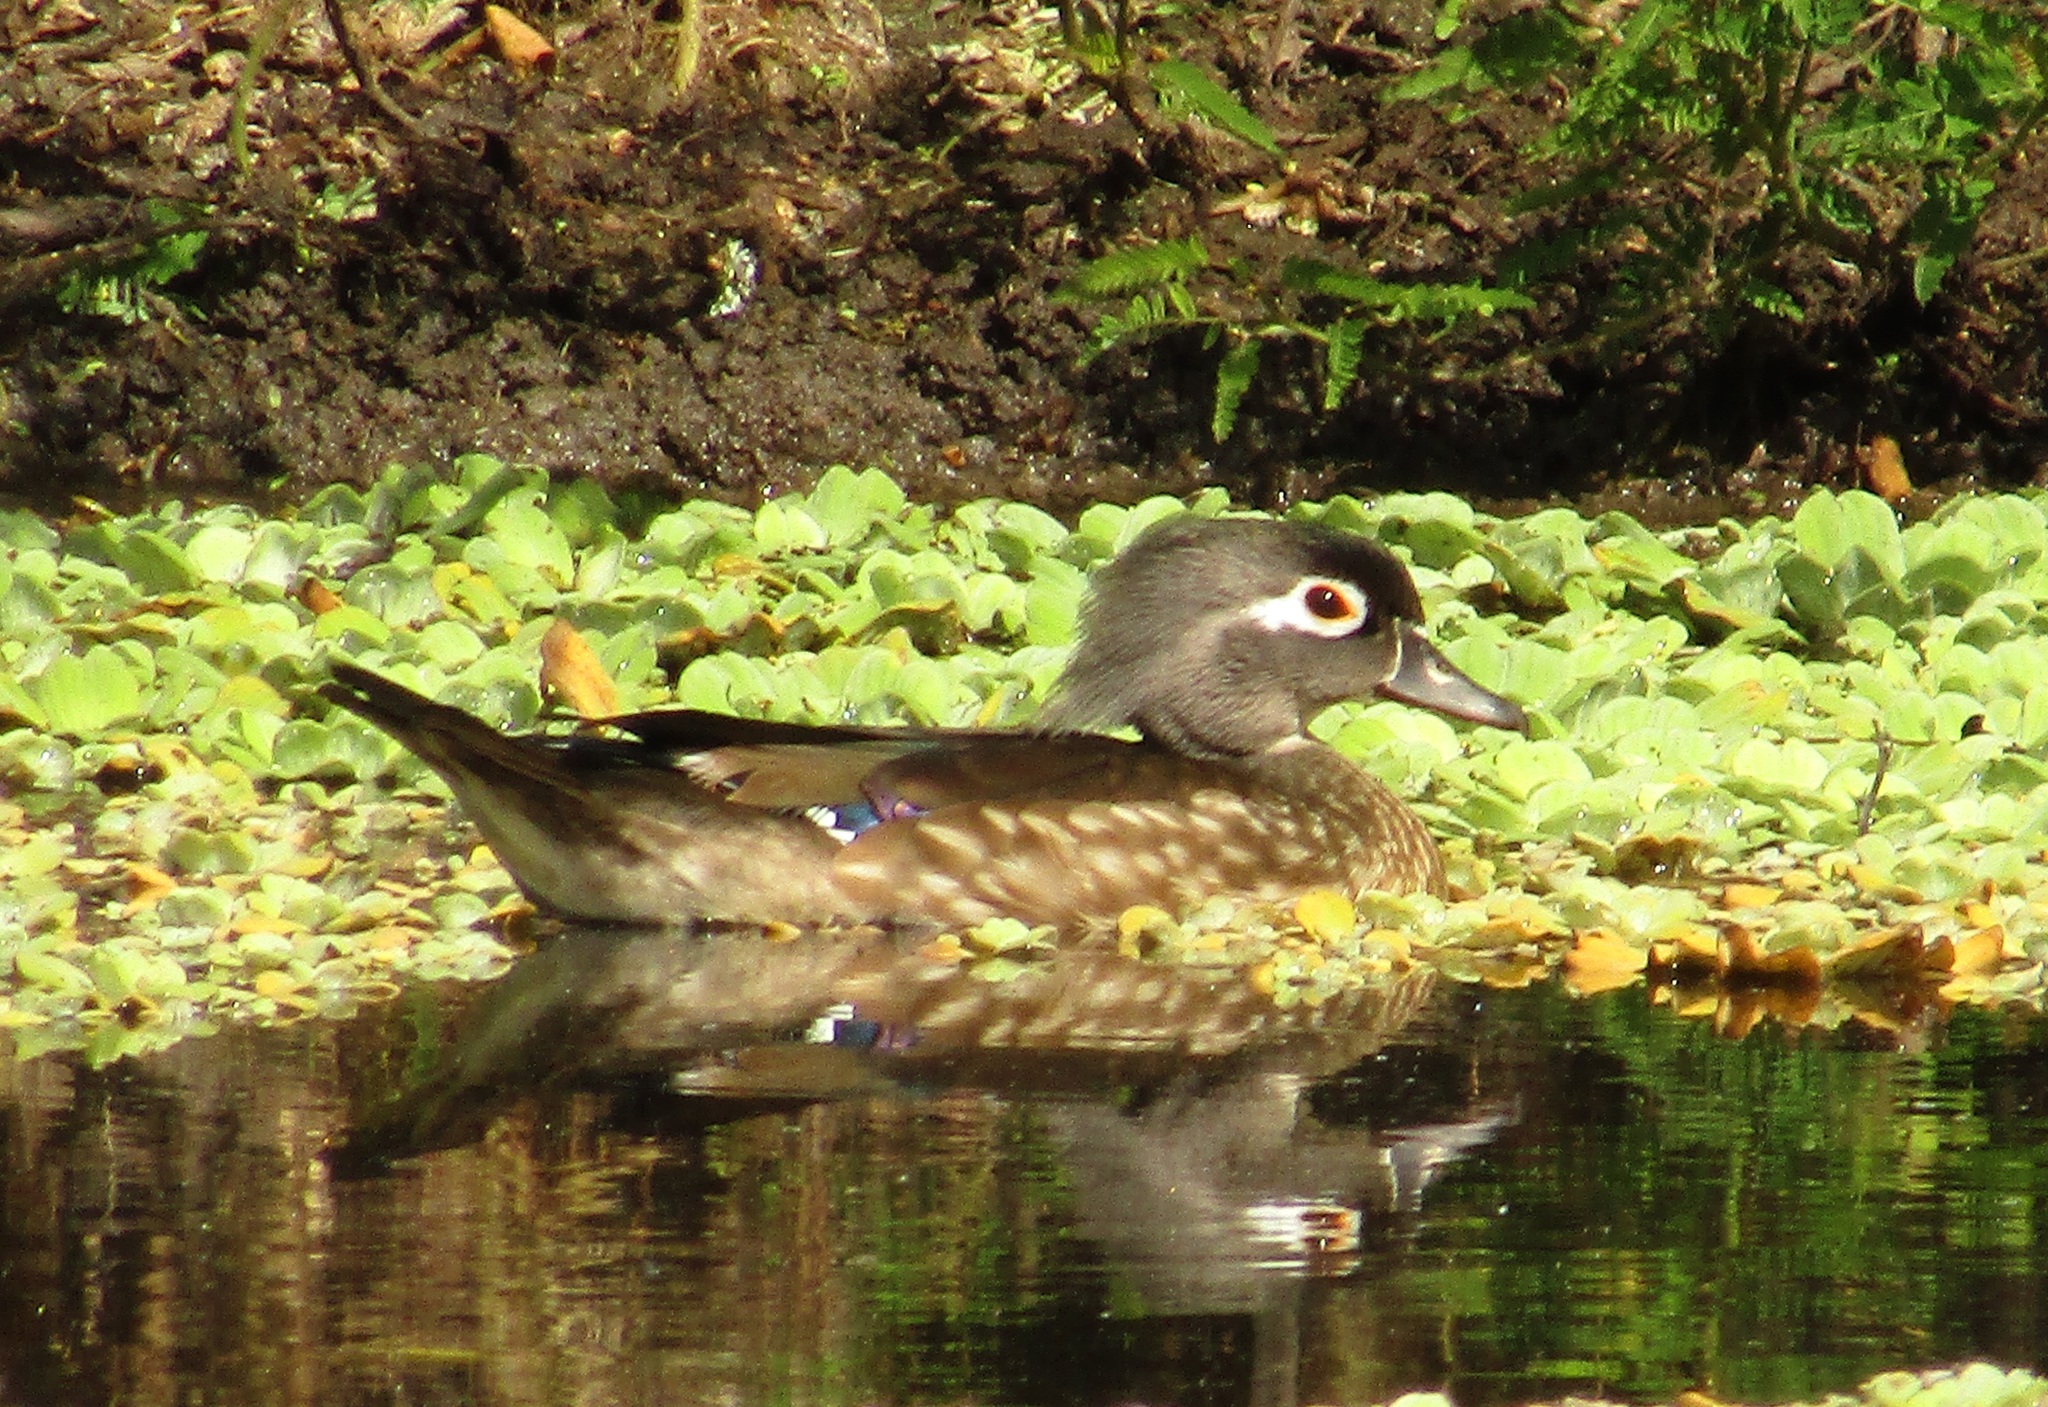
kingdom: Animalia
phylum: Chordata
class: Aves
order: Anseriformes
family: Anatidae
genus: Aix
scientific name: Aix sponsa
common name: Wood duck
